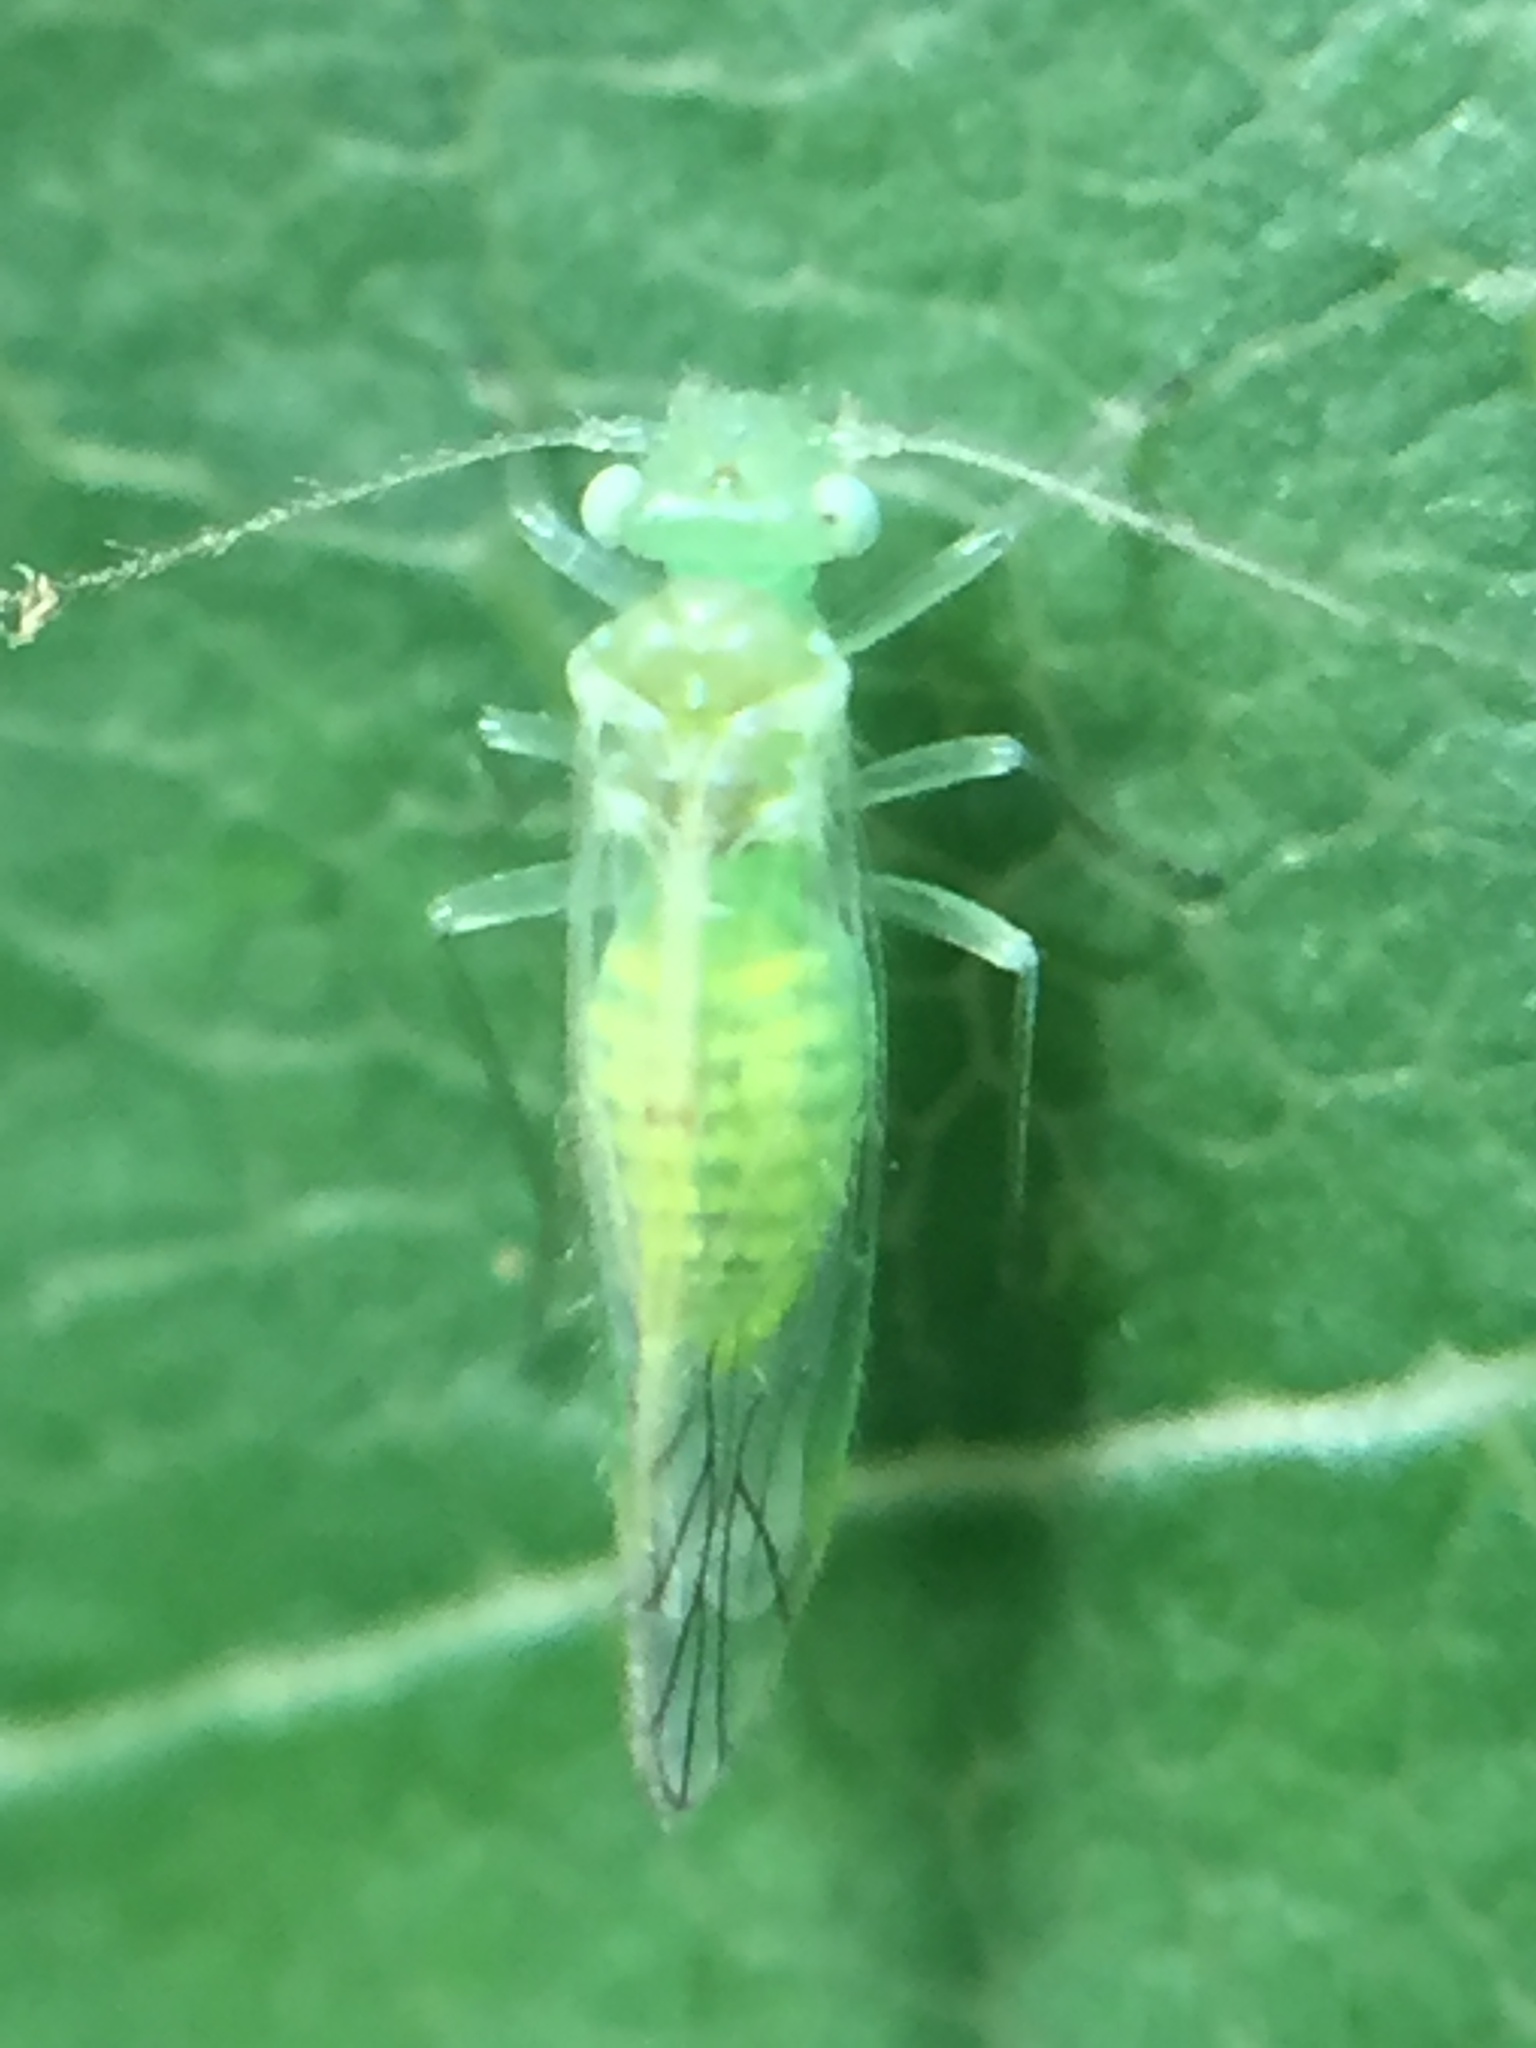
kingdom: Animalia
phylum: Arthropoda
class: Insecta
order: Psocodea
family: Pseudocaeciliidae
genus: Austropsocus
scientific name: Austropsocus viridis
